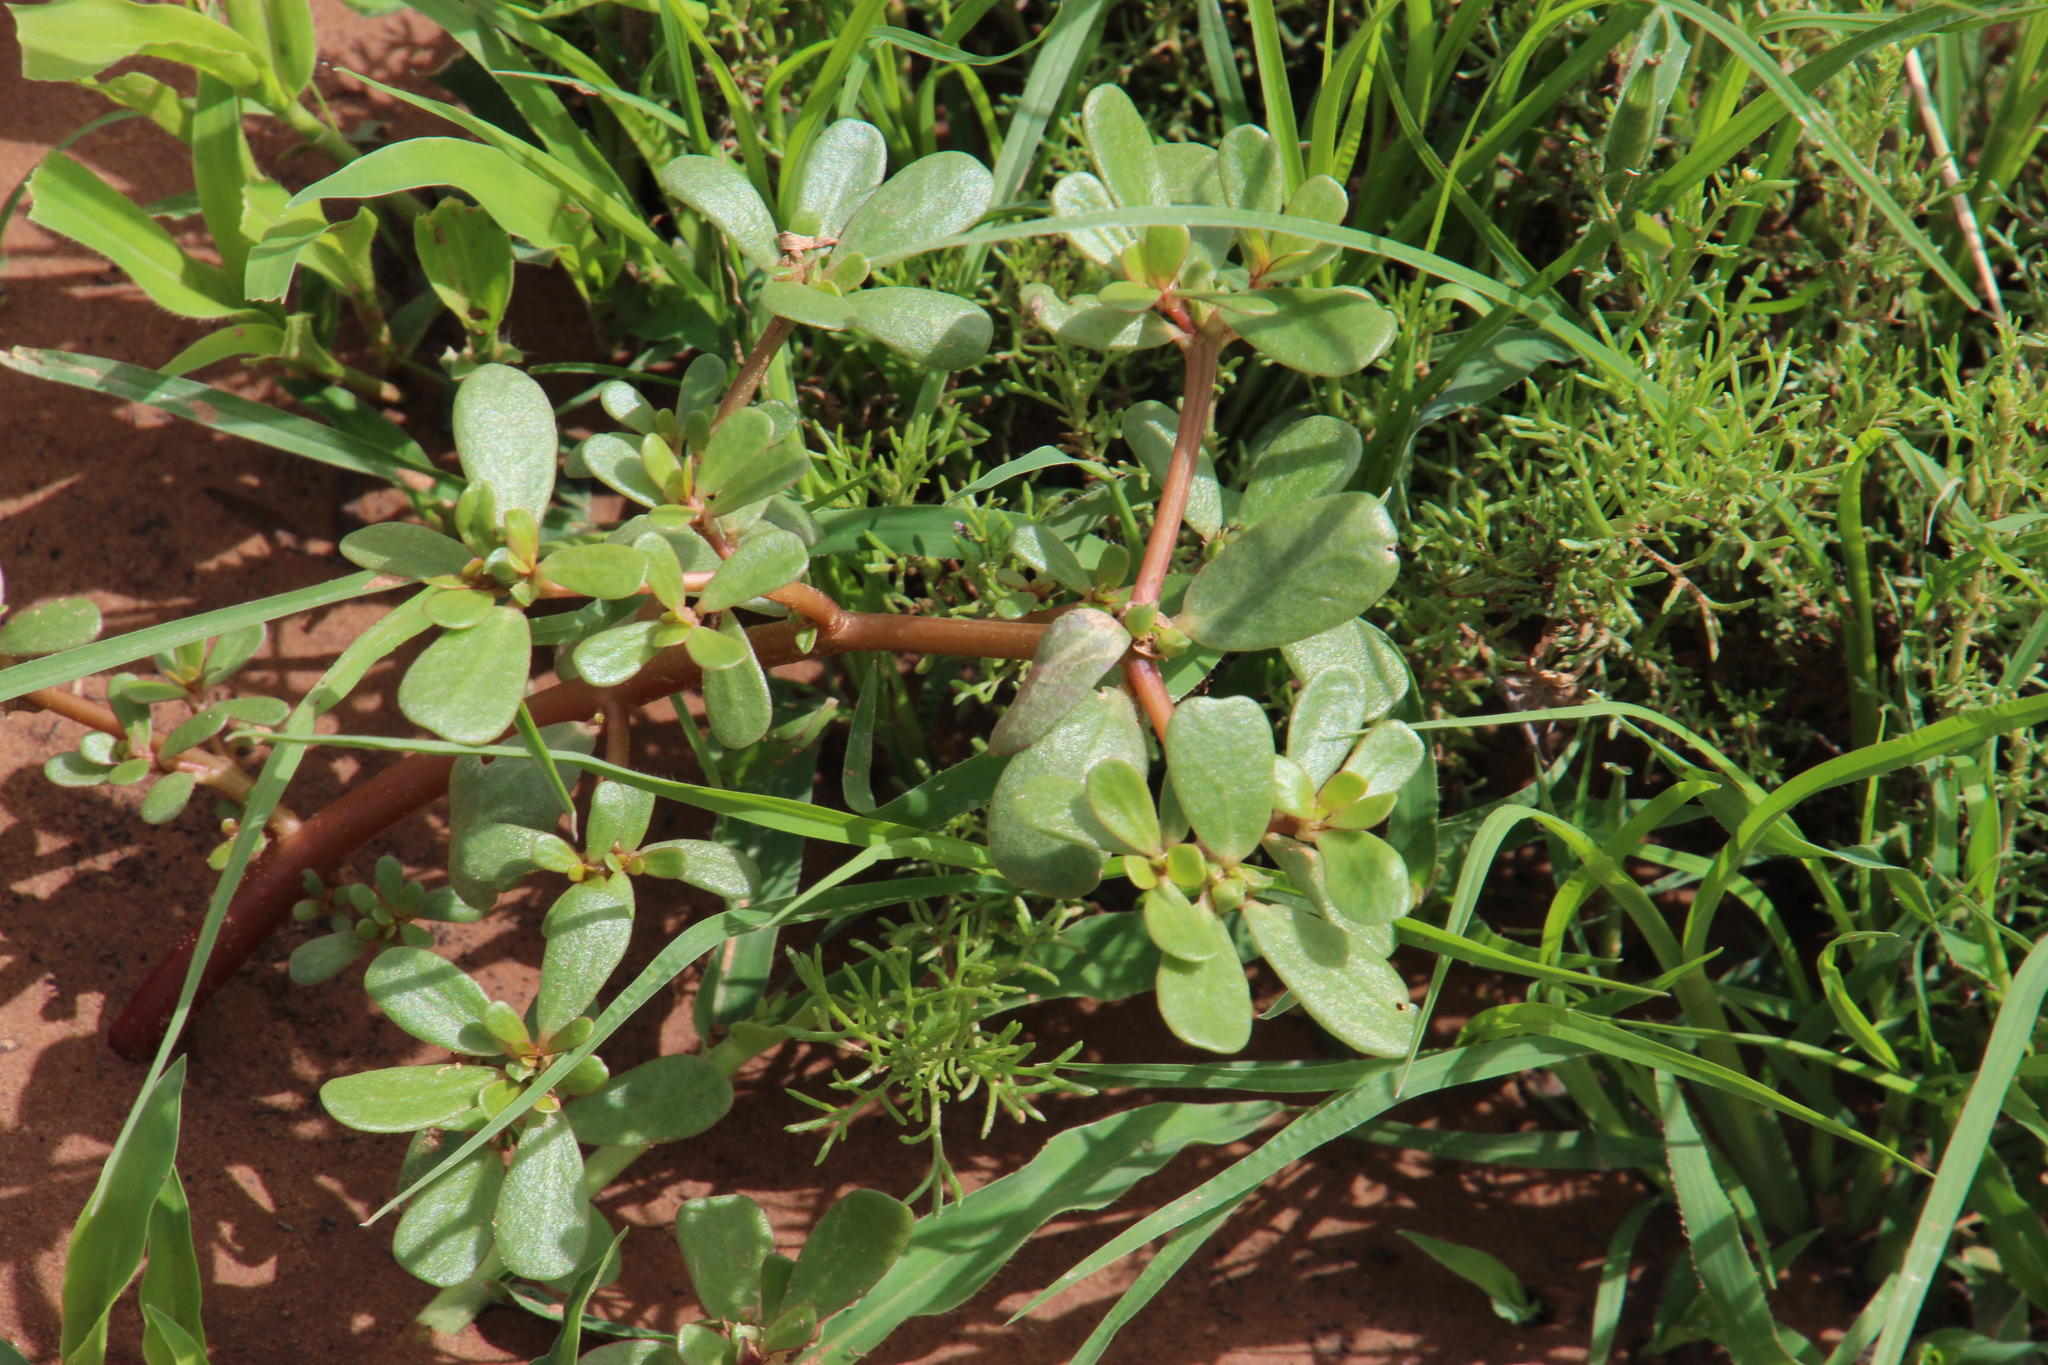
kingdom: Plantae
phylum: Tracheophyta
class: Magnoliopsida
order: Caryophyllales
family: Portulacaceae
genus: Portulaca
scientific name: Portulaca oleracea
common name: Common purslane
